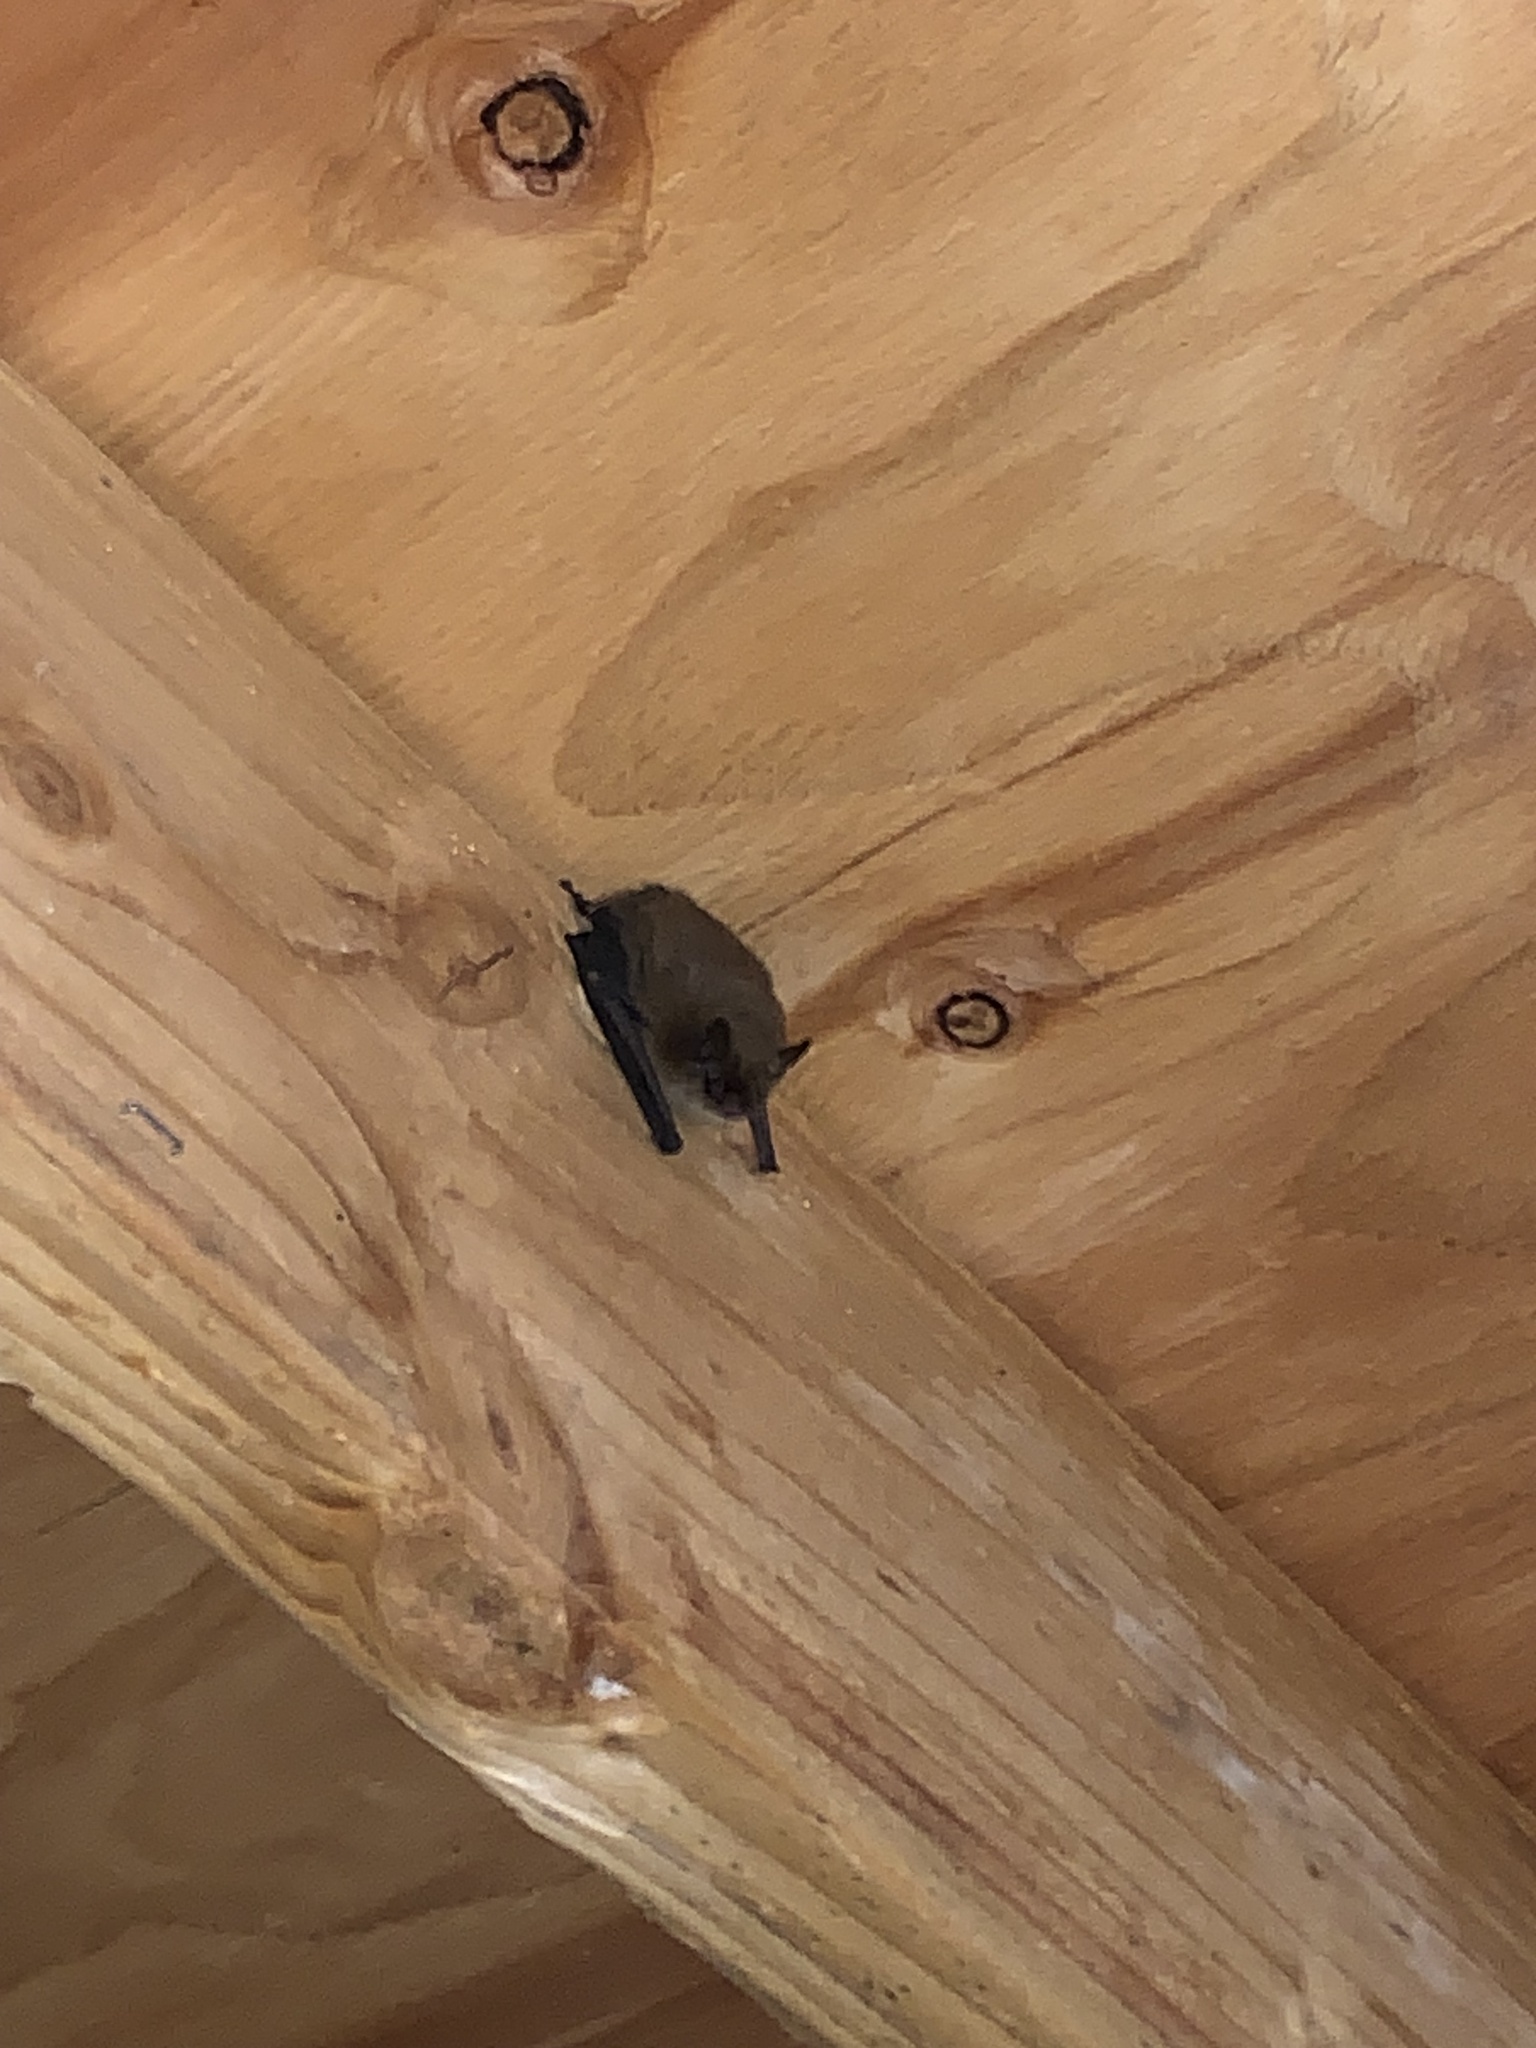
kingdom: Animalia
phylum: Chordata
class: Mammalia
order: Chiroptera
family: Vespertilionidae
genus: Myotis
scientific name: Myotis
